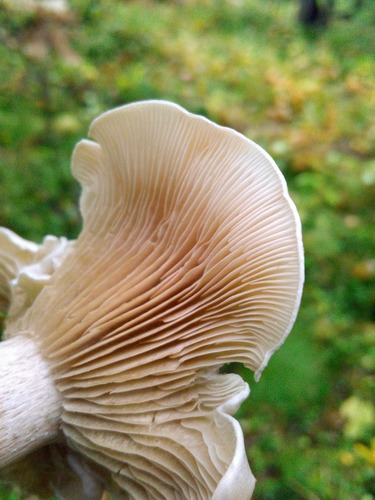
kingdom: Fungi
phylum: Basidiomycota
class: Agaricomycetes
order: Agaricales
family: Entolomataceae
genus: Clitopilus
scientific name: Clitopilus prunulus
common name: The miller
